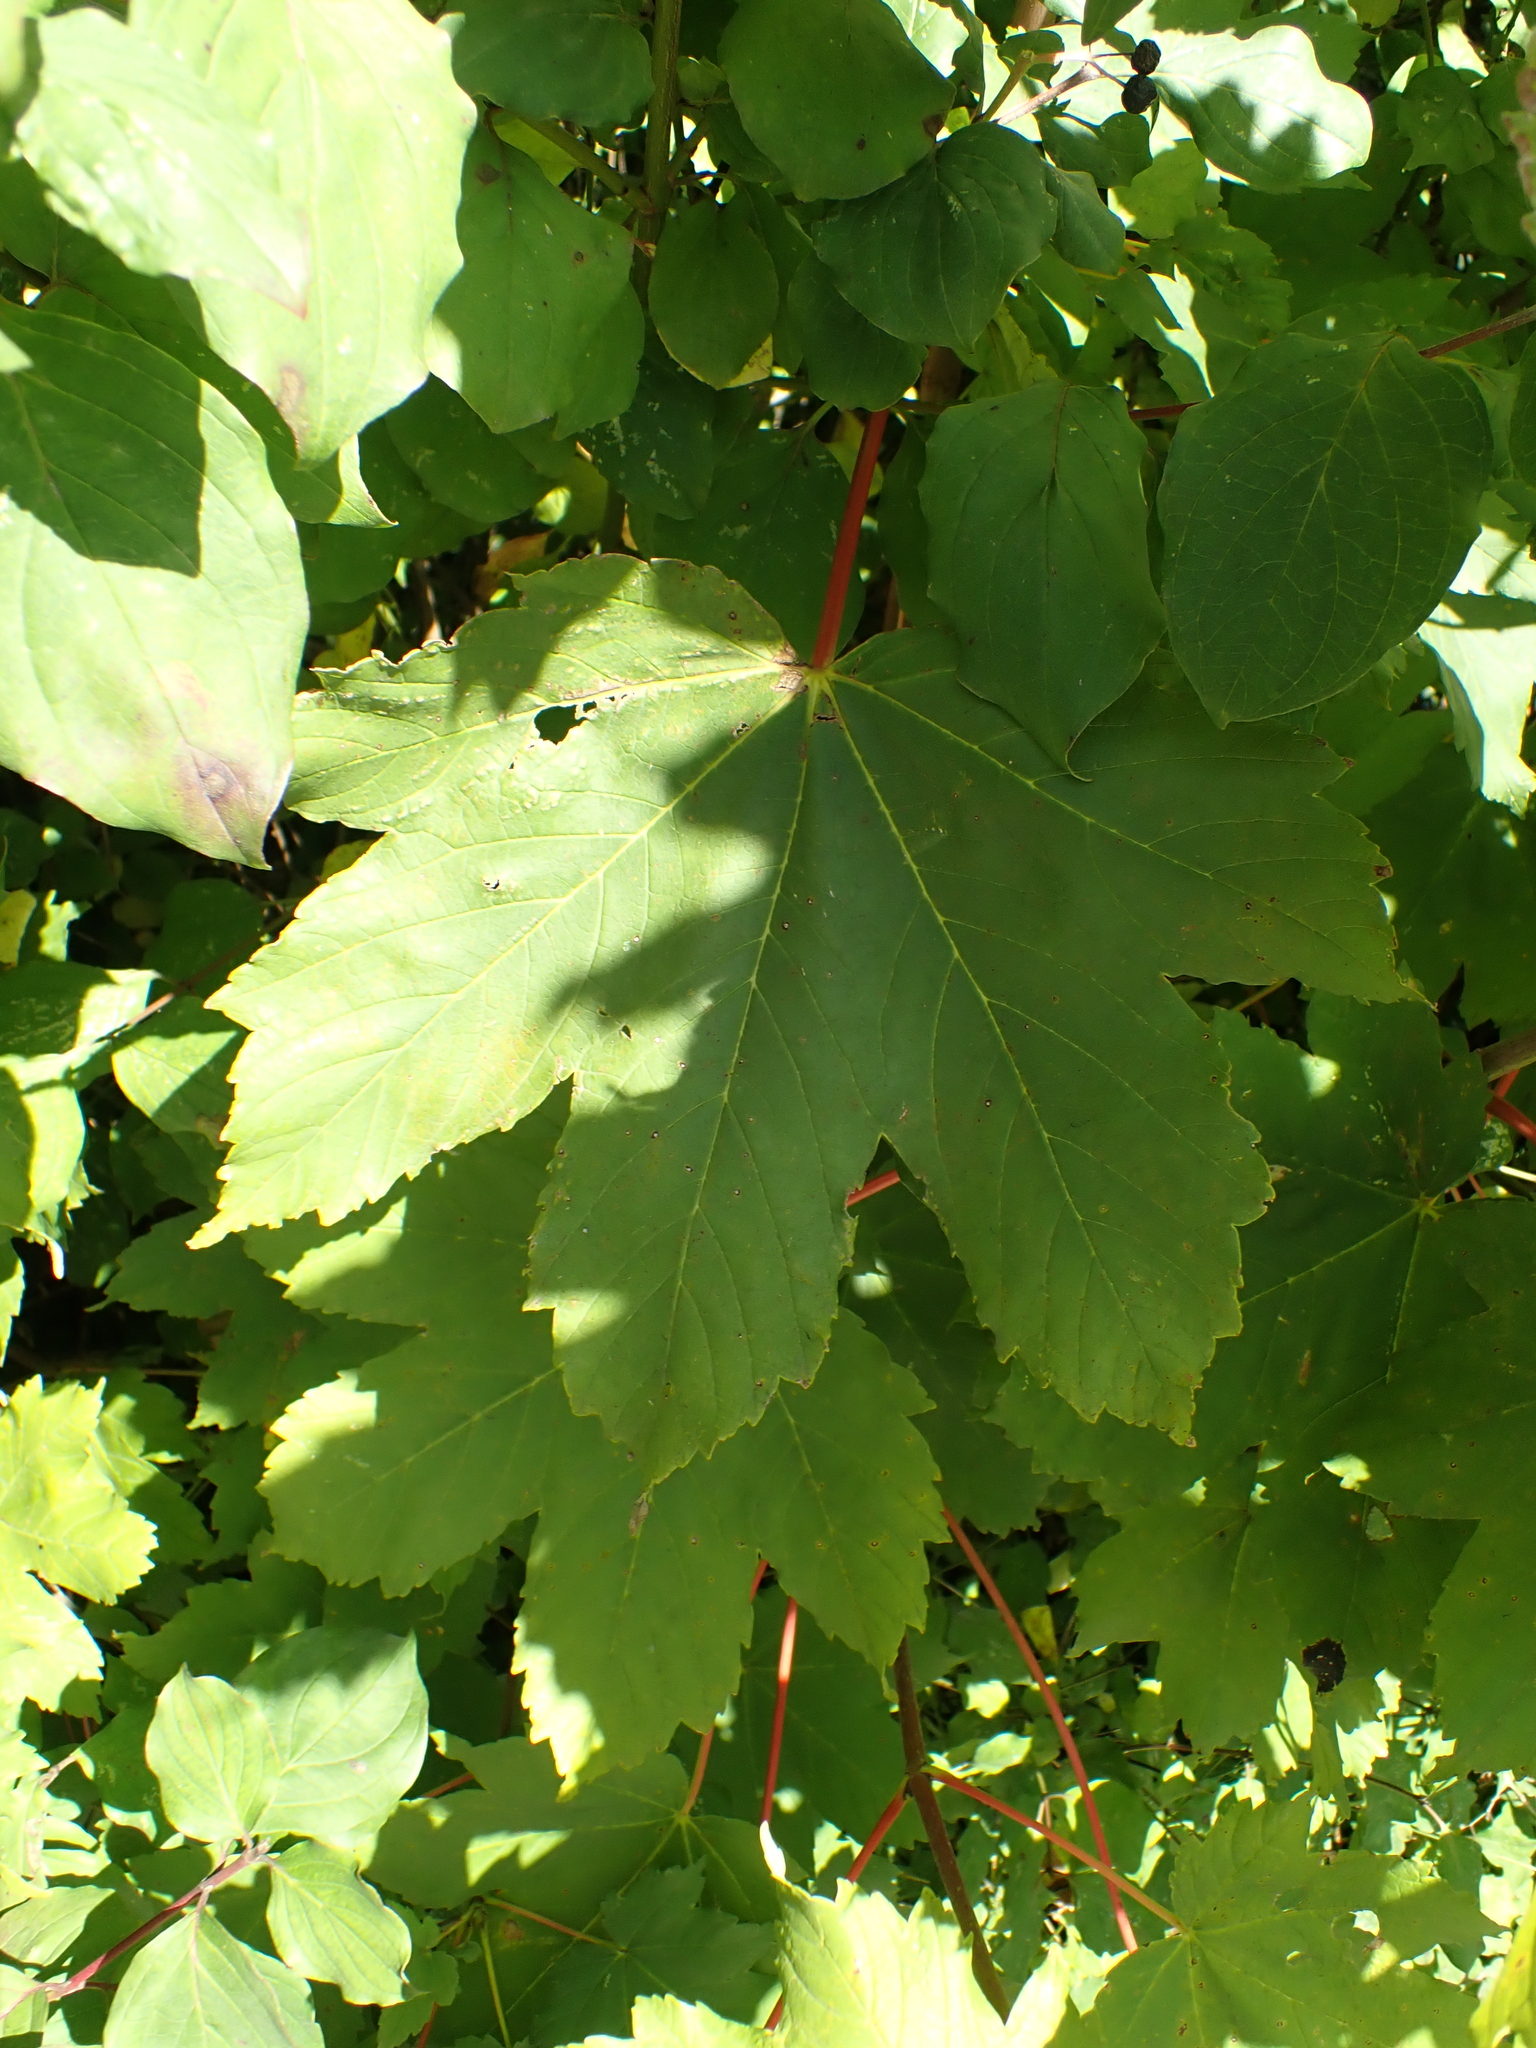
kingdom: Plantae
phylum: Tracheophyta
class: Magnoliopsida
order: Sapindales
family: Sapindaceae
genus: Acer
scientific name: Acer pseudoplatanus
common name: Sycamore
